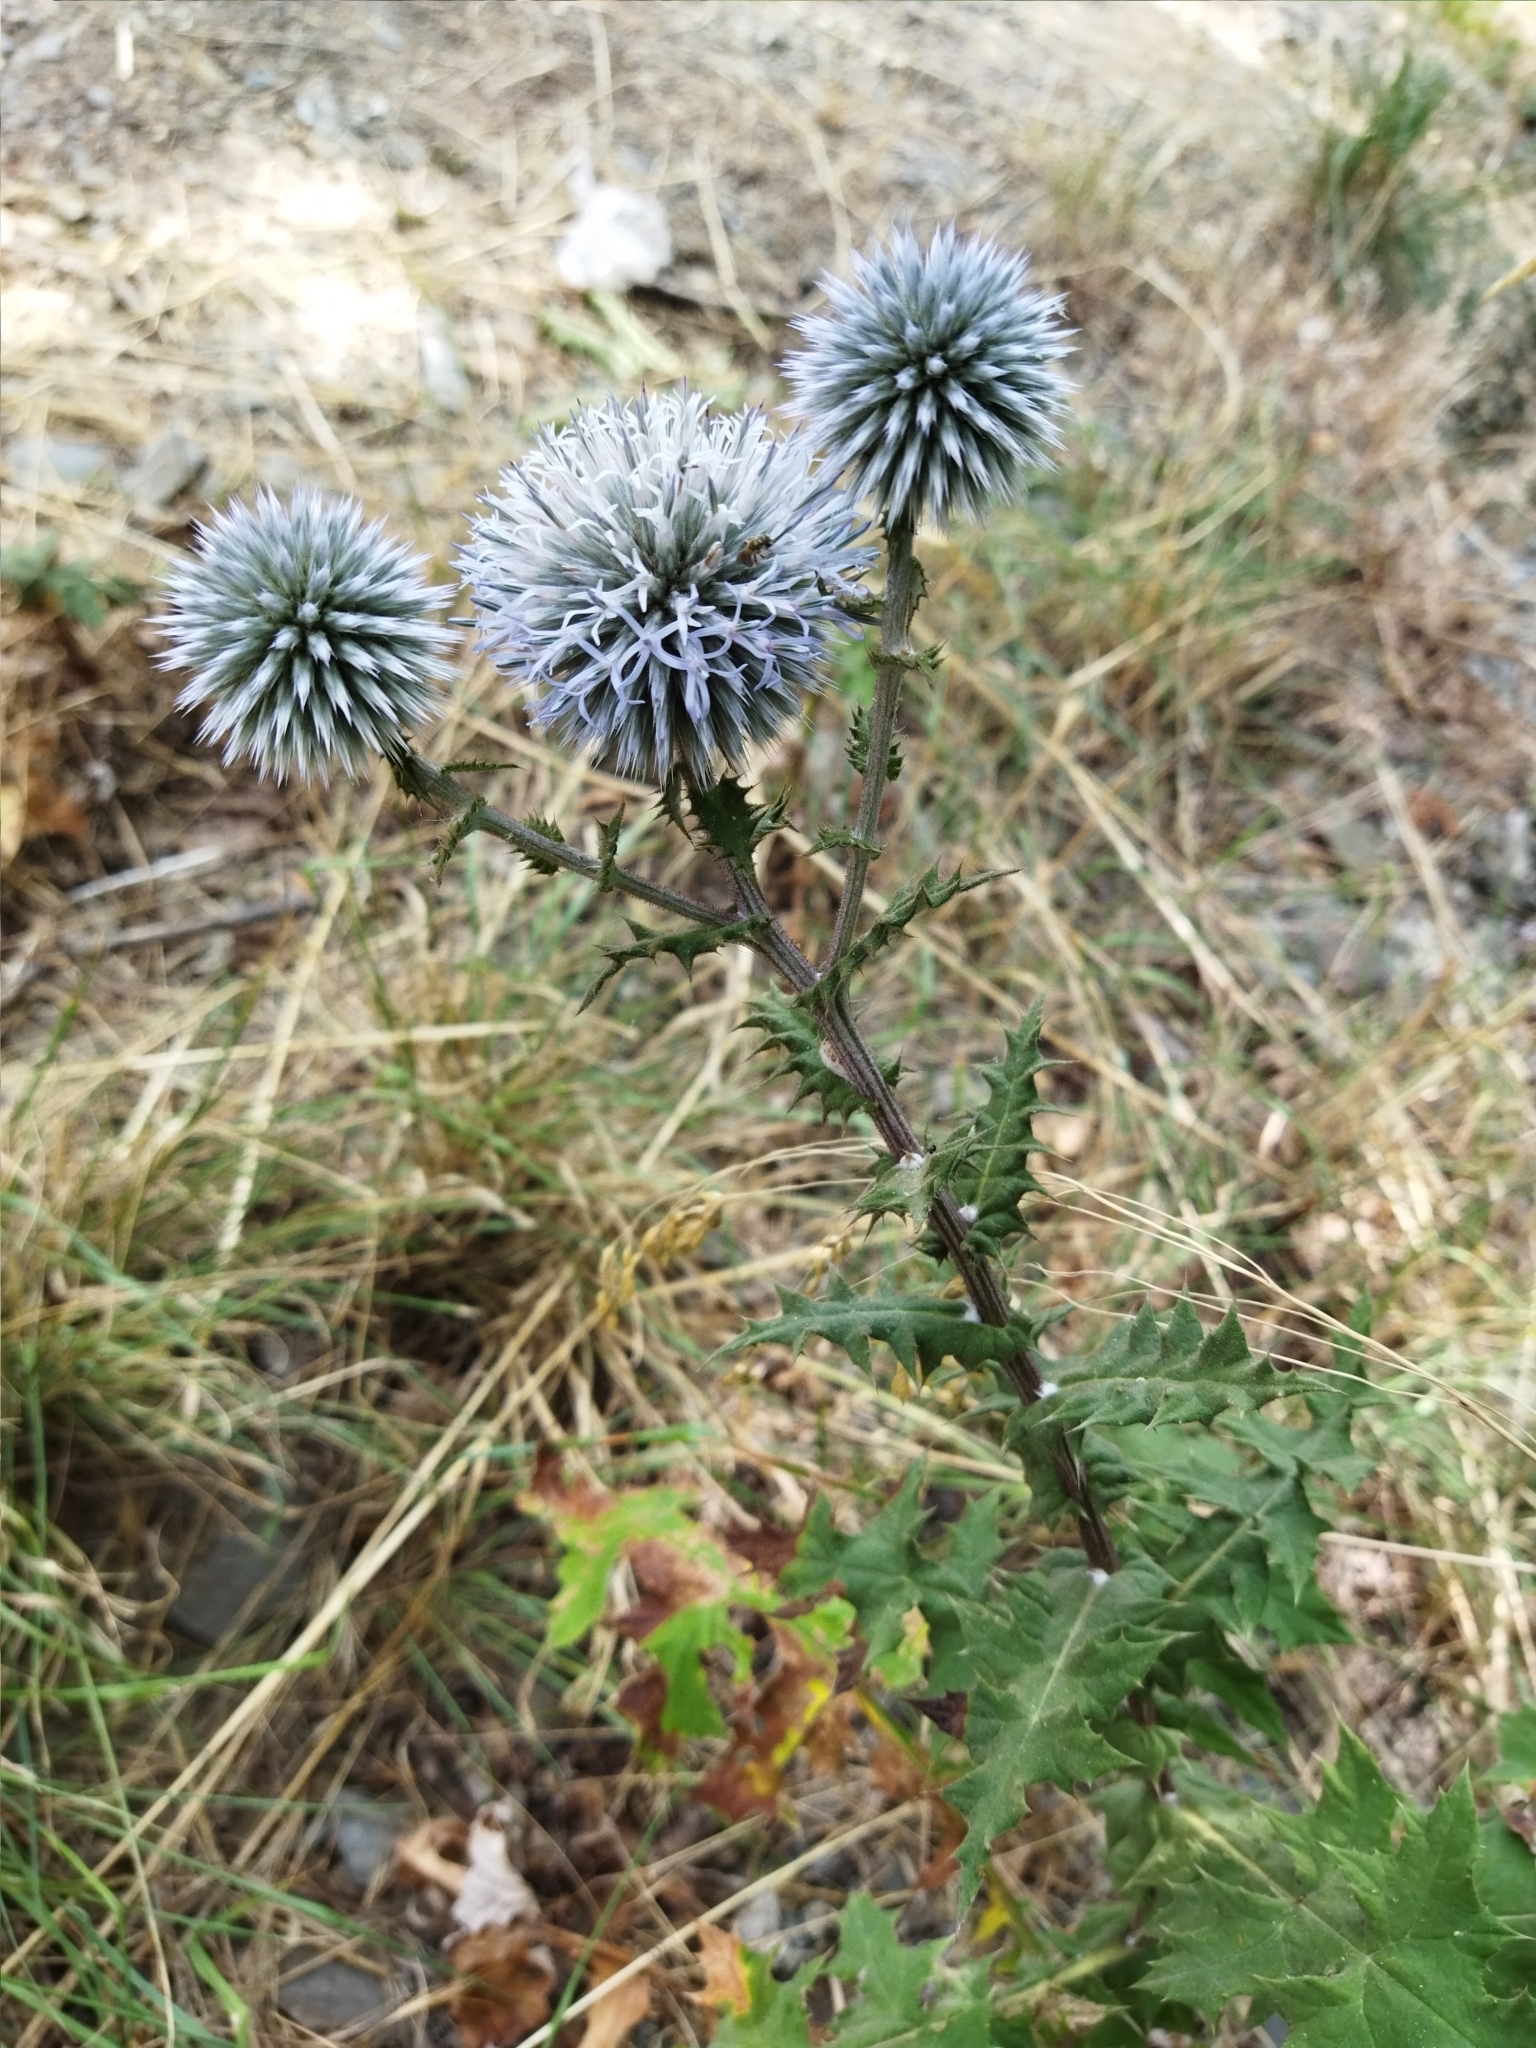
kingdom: Plantae
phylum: Tracheophyta
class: Magnoliopsida
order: Asterales
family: Asteraceae
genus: Echinops
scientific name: Echinops sphaerocephalus
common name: Glandular globe-thistle
